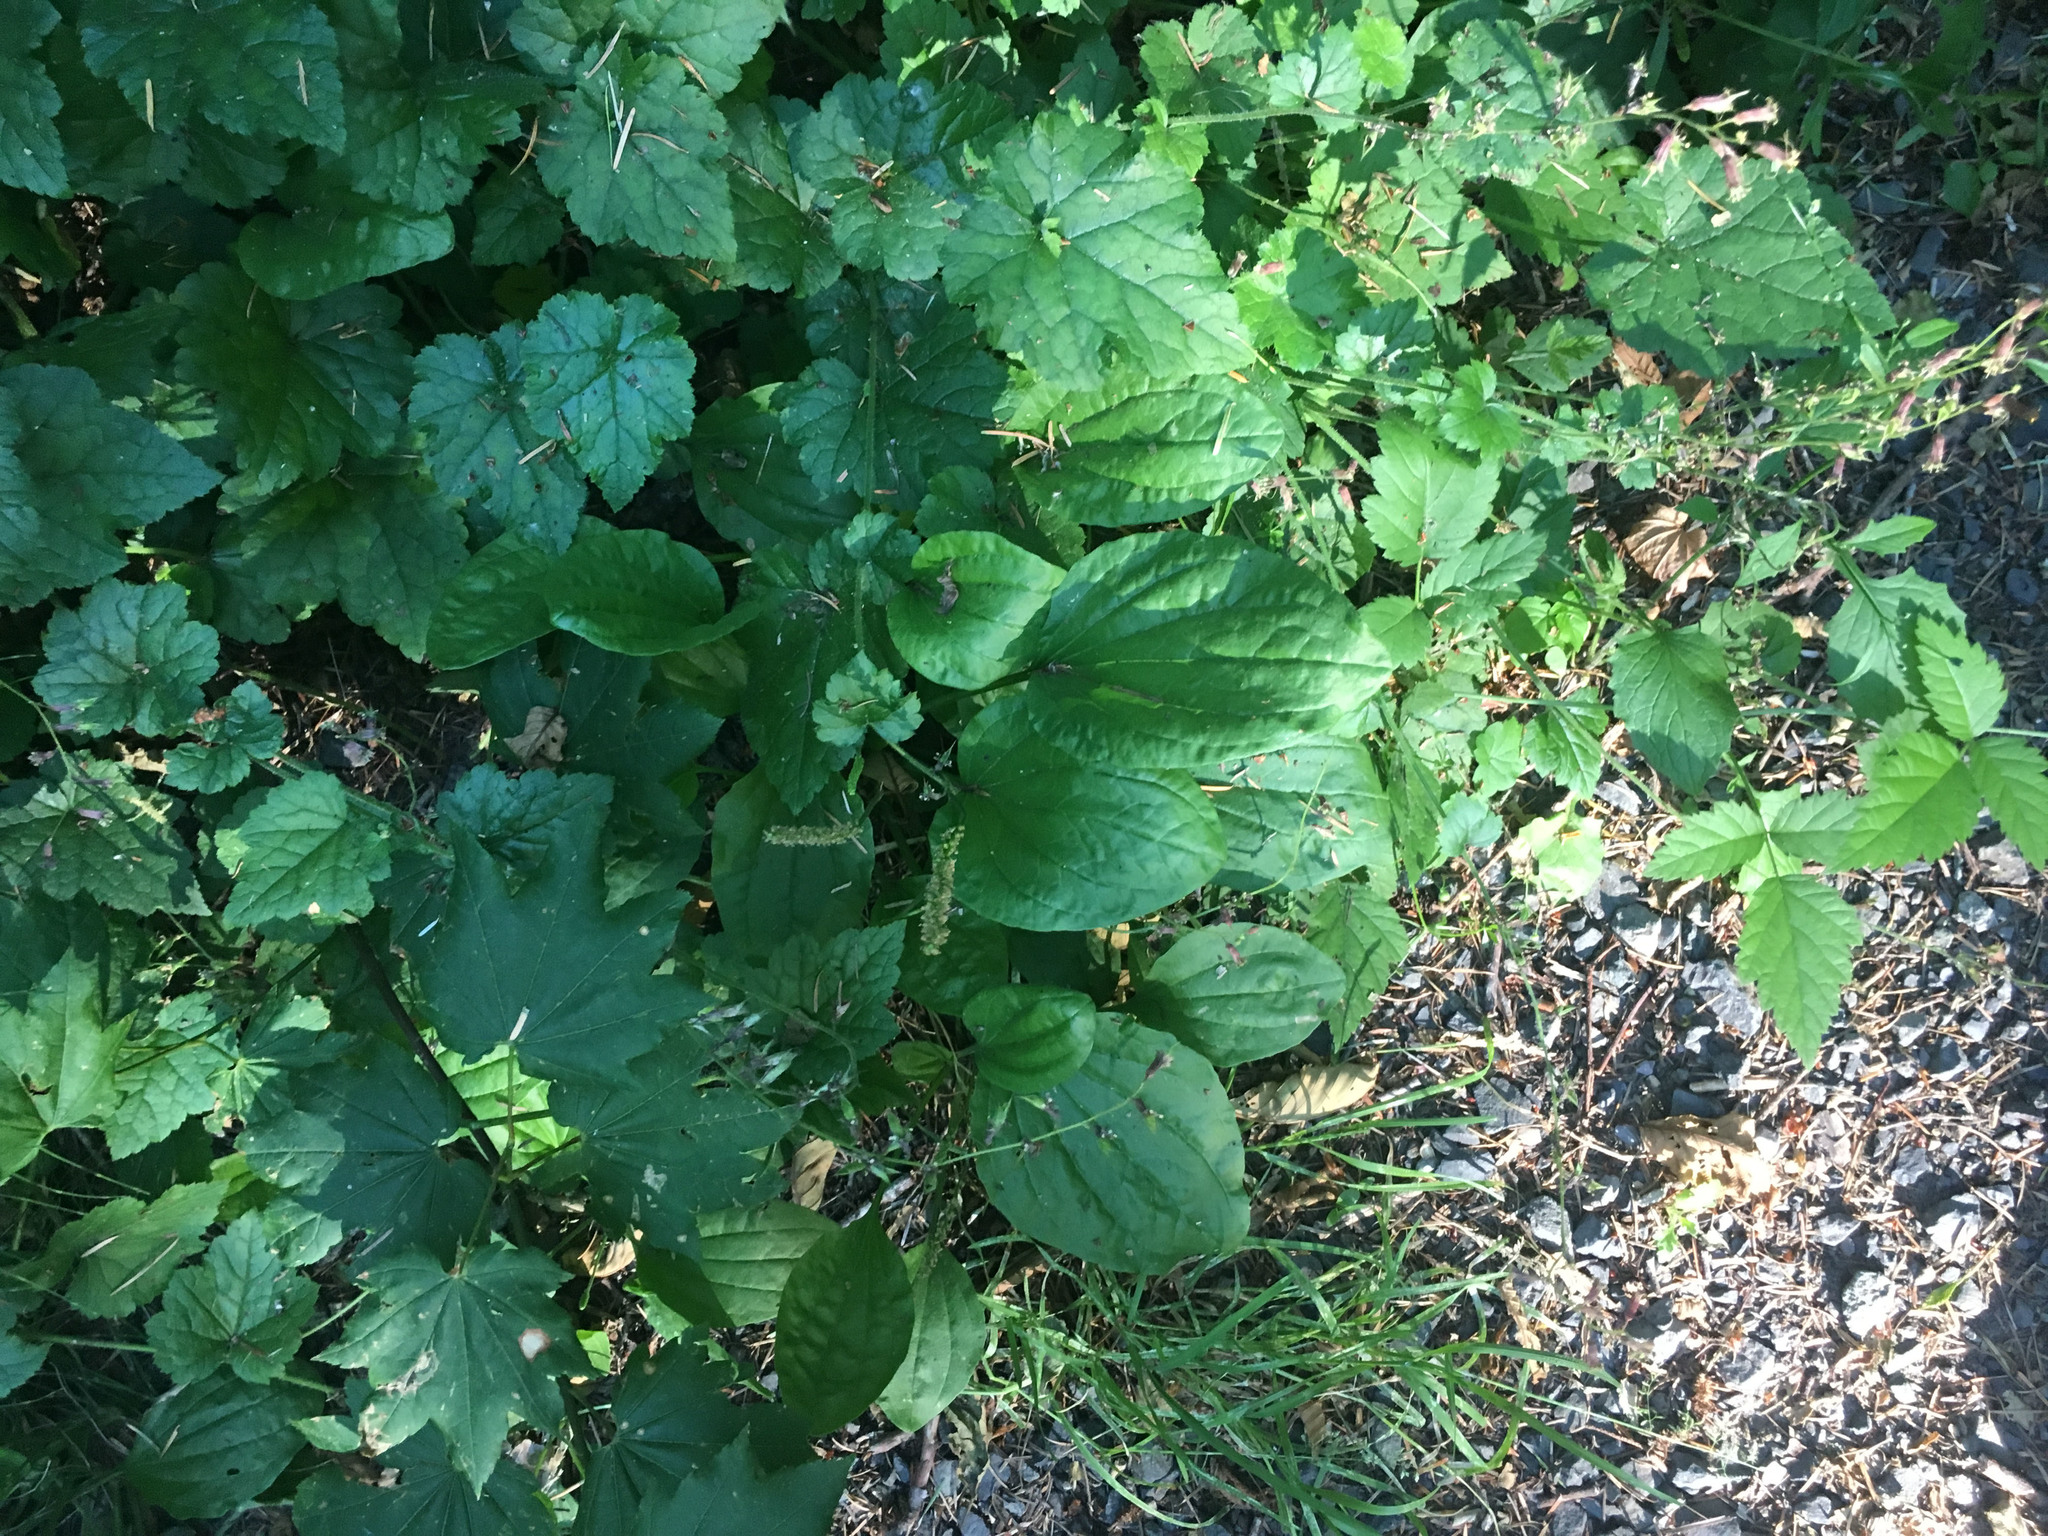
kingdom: Plantae
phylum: Tracheophyta
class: Magnoliopsida
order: Lamiales
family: Plantaginaceae
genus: Plantago
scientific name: Plantago major
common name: Common plantain
